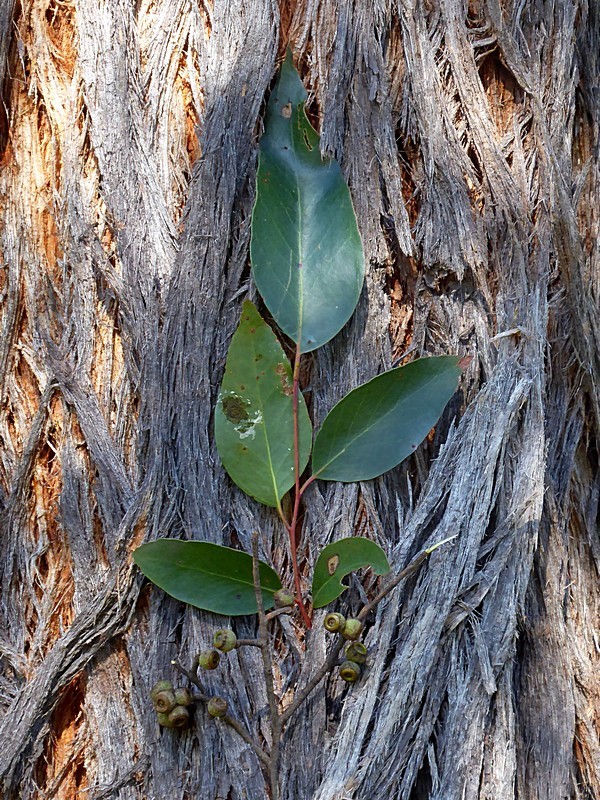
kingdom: Plantae
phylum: Tracheophyta
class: Magnoliopsida
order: Myrtales
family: Myrtaceae
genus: Eucalyptus
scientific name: Eucalyptus globoidea
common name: White-stringybark
